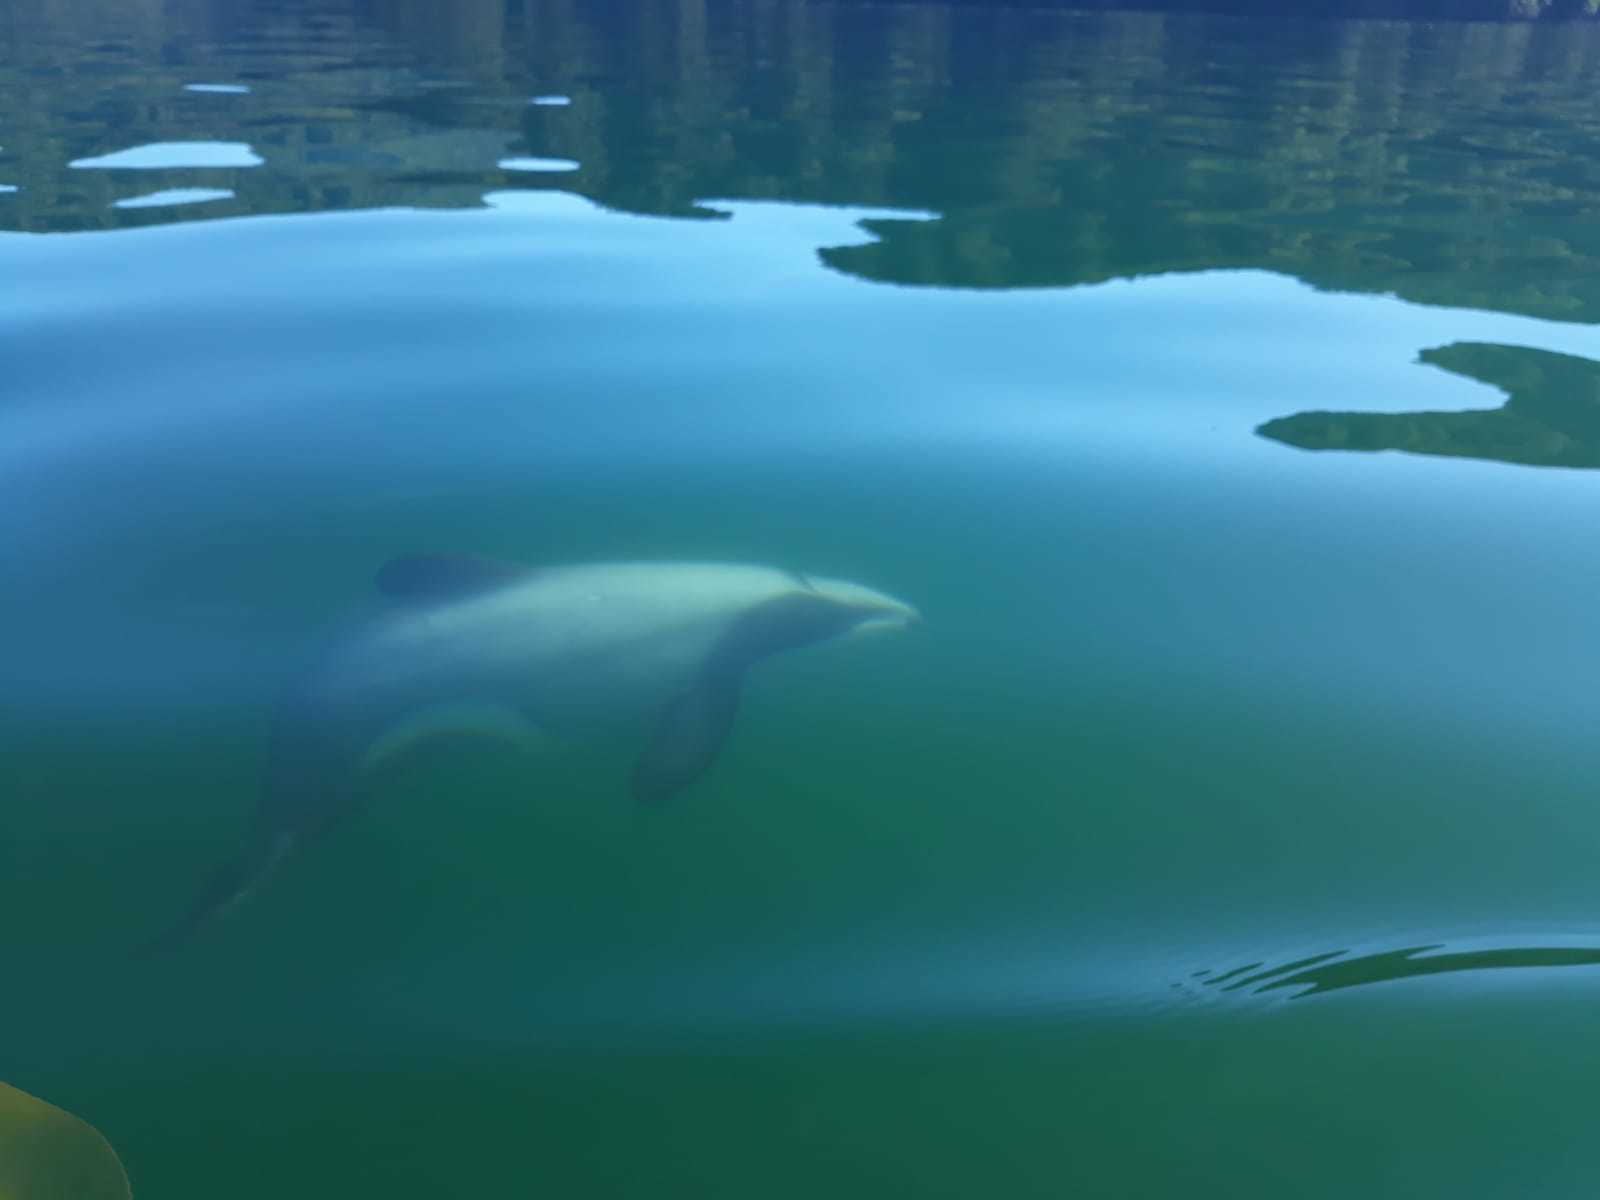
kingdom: Animalia
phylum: Chordata
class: Mammalia
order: Cetacea
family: Delphinidae
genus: Cephalorhynchus
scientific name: Cephalorhynchus hectori
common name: Hector's dolphin
